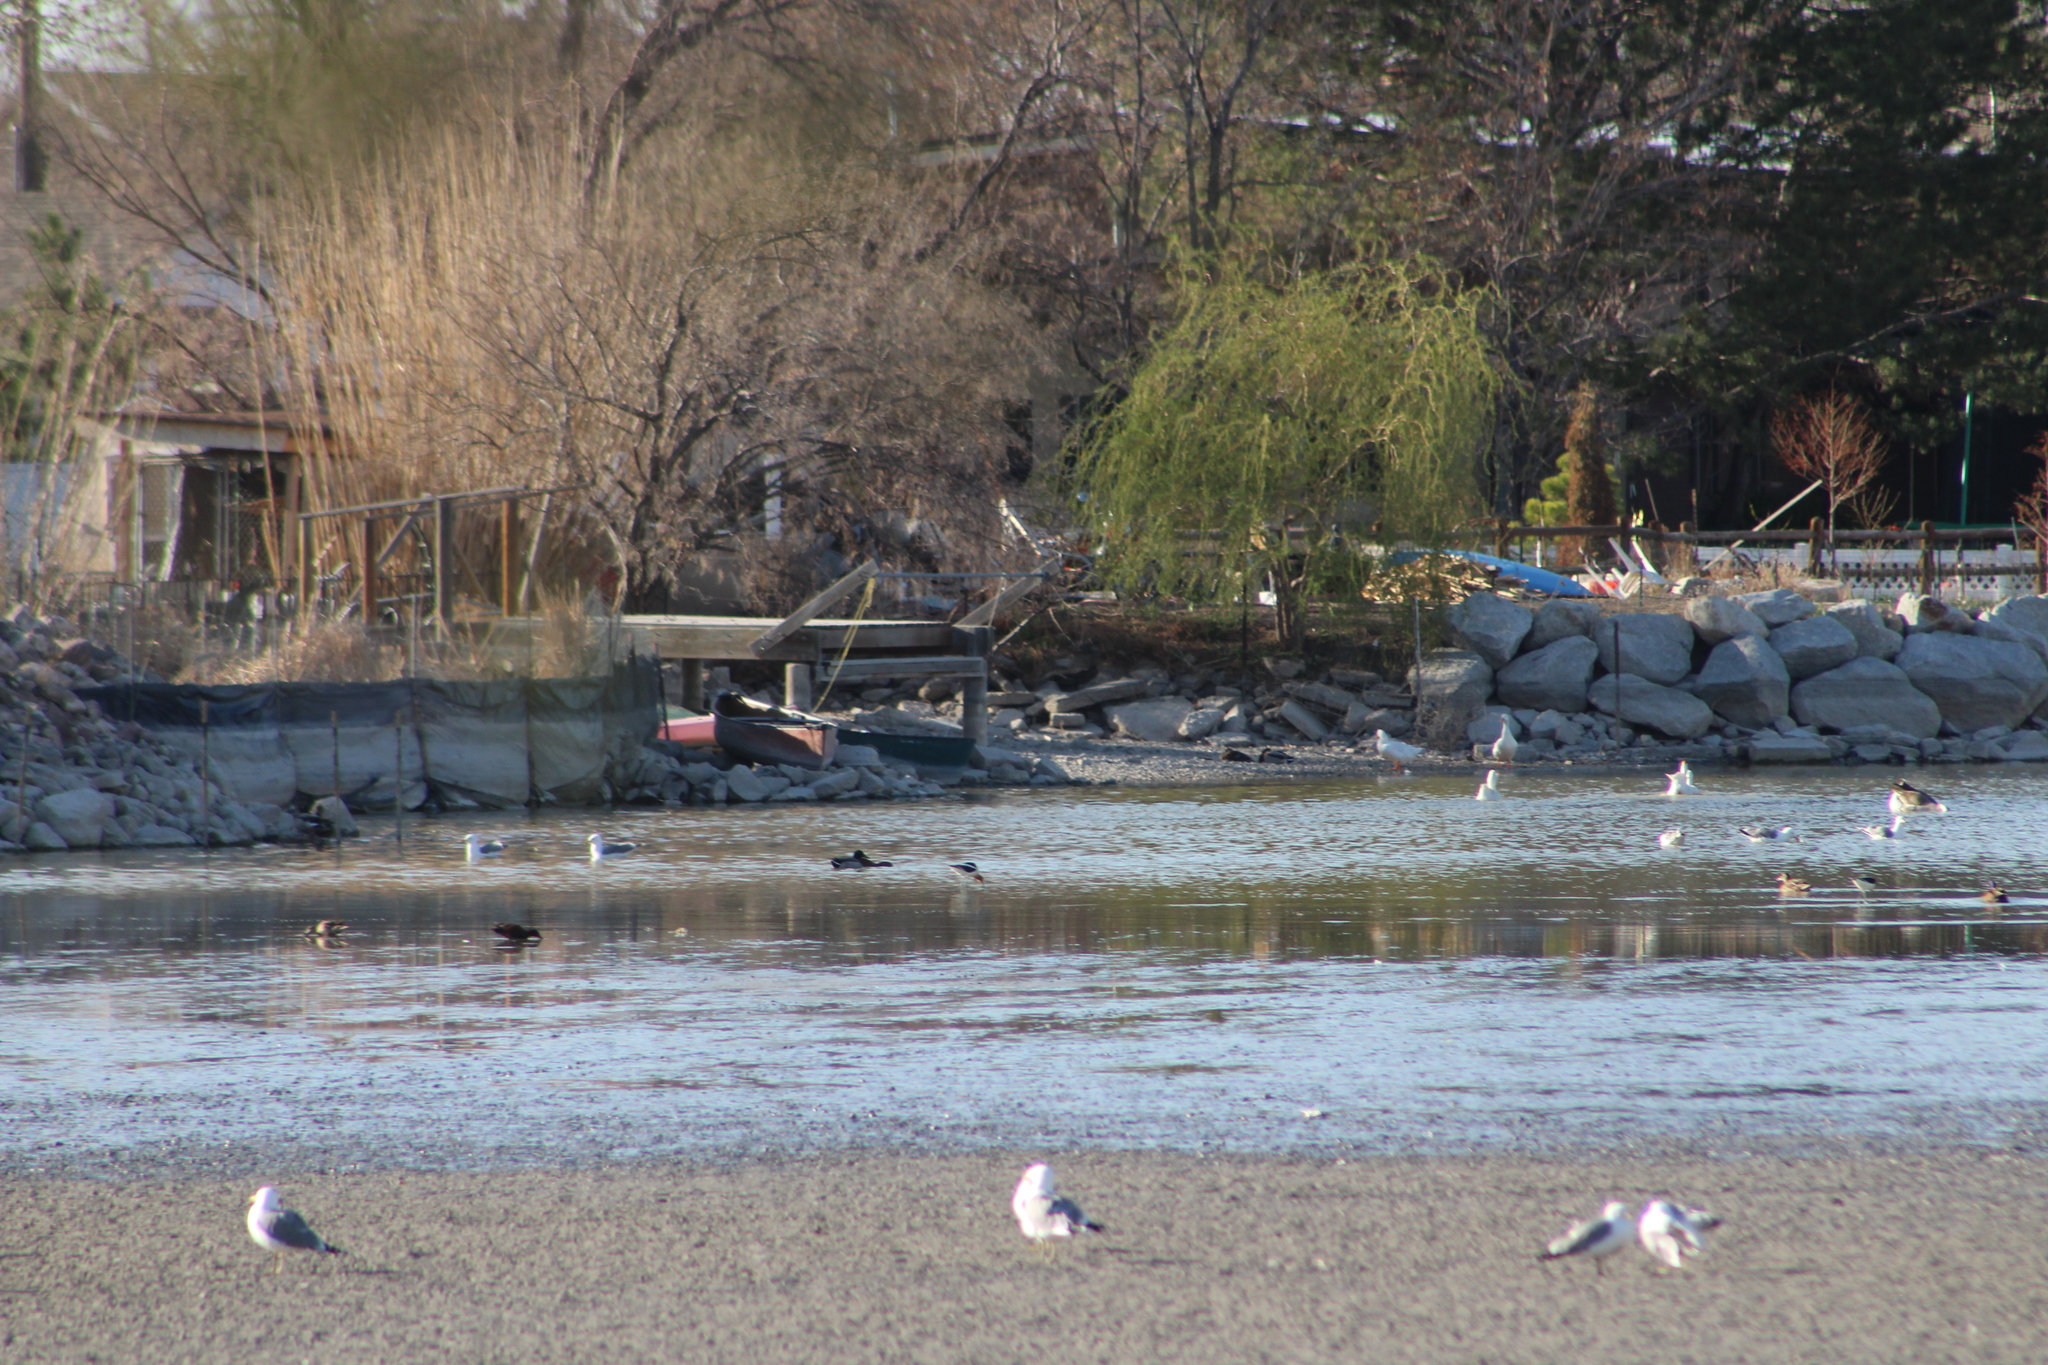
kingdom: Animalia
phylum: Chordata
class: Aves
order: Anseriformes
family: Anatidae
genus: Spatula
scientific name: Spatula cyanoptera
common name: Cinnamon teal
